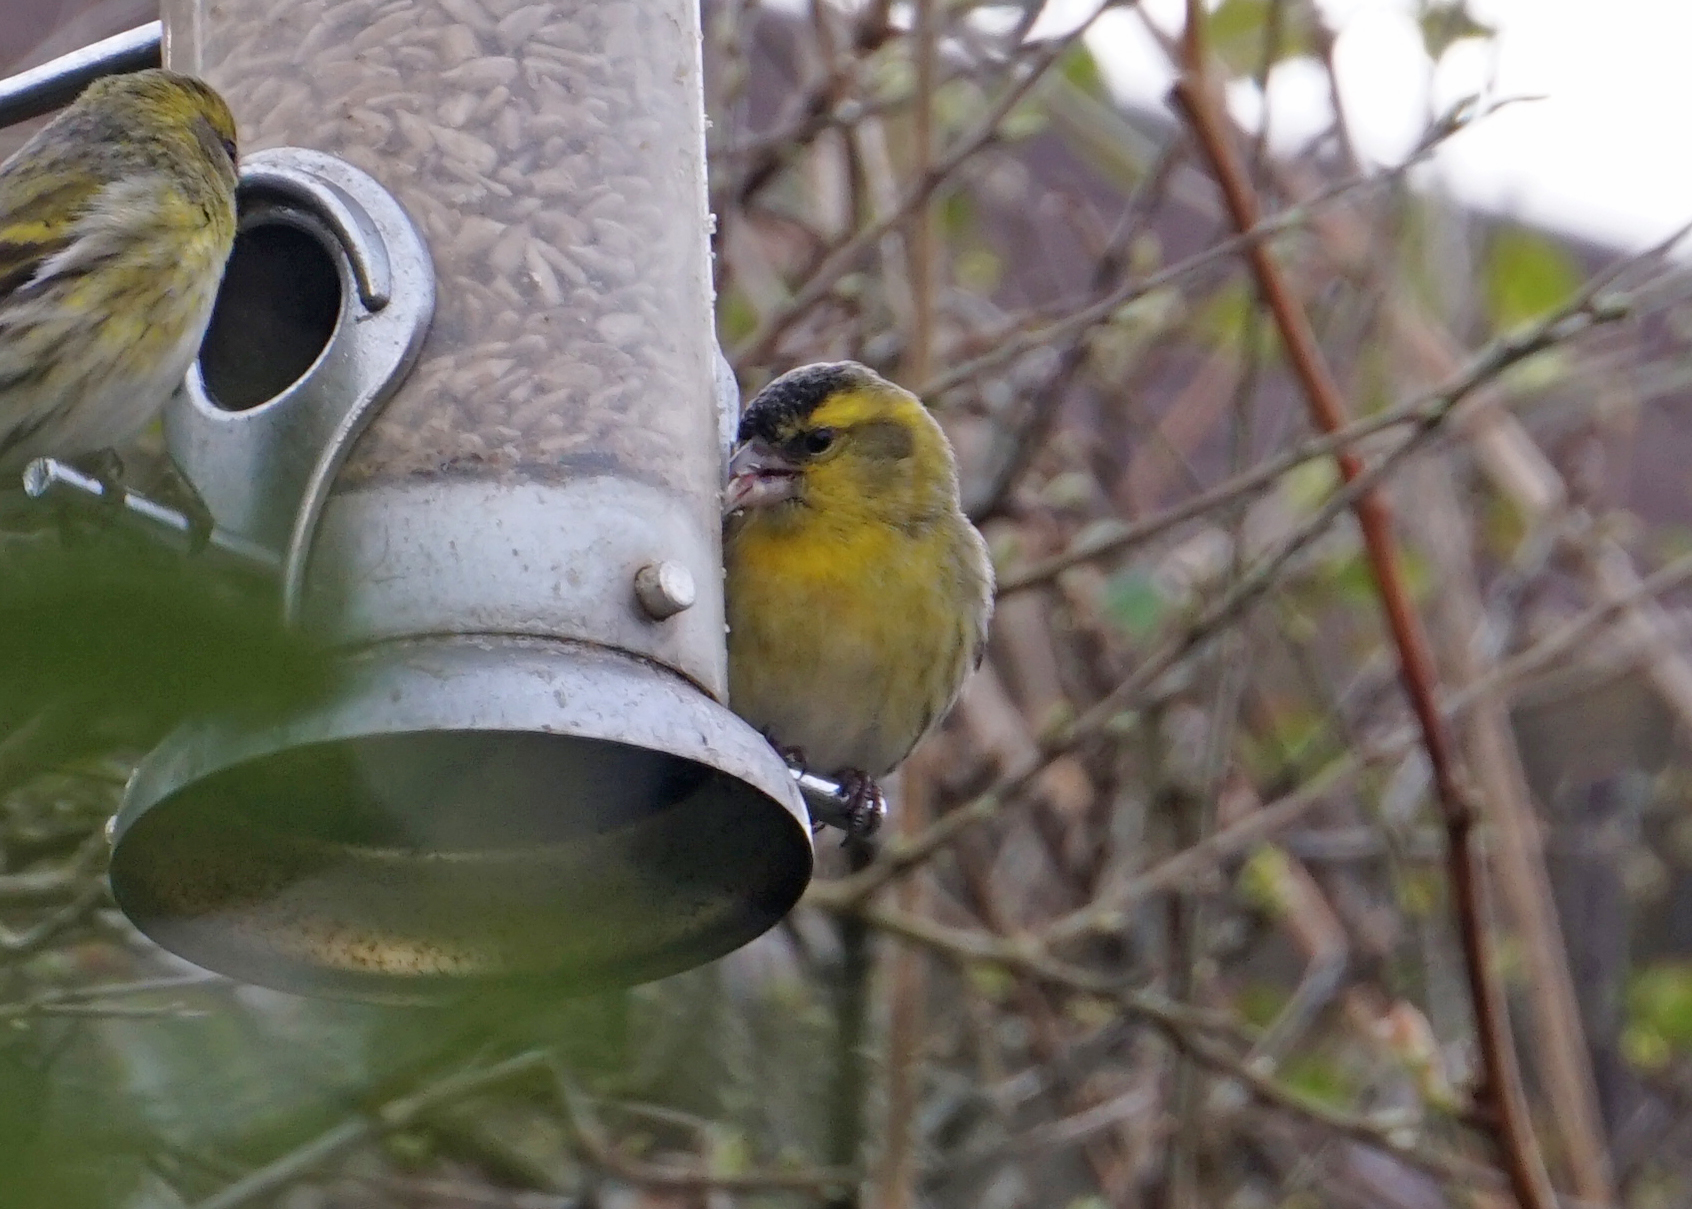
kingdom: Animalia
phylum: Chordata
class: Aves
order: Passeriformes
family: Fringillidae
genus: Spinus
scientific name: Spinus spinus
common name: Eurasian siskin
